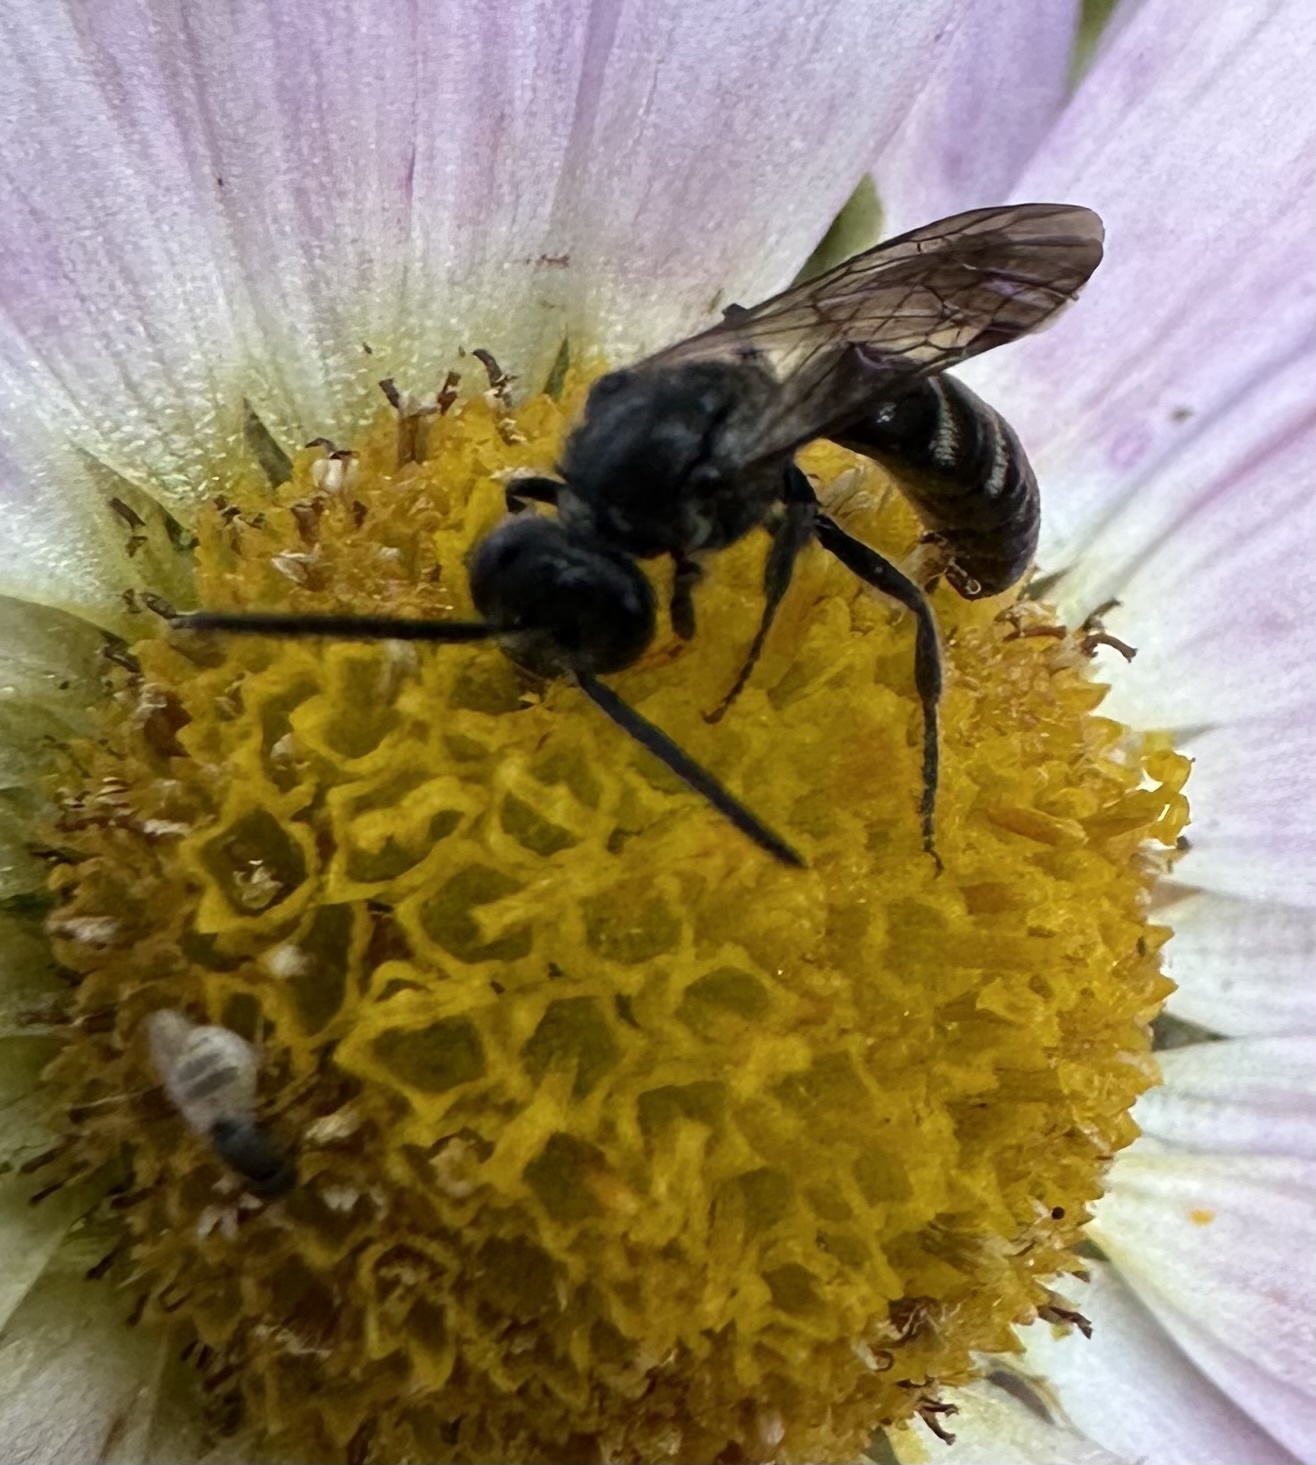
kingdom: Animalia
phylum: Arthropoda
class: Insecta
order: Hymenoptera
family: Halictidae
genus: Lasioglossum
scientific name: Lasioglossum fuscipenne
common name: Brown-winged sweat bee
